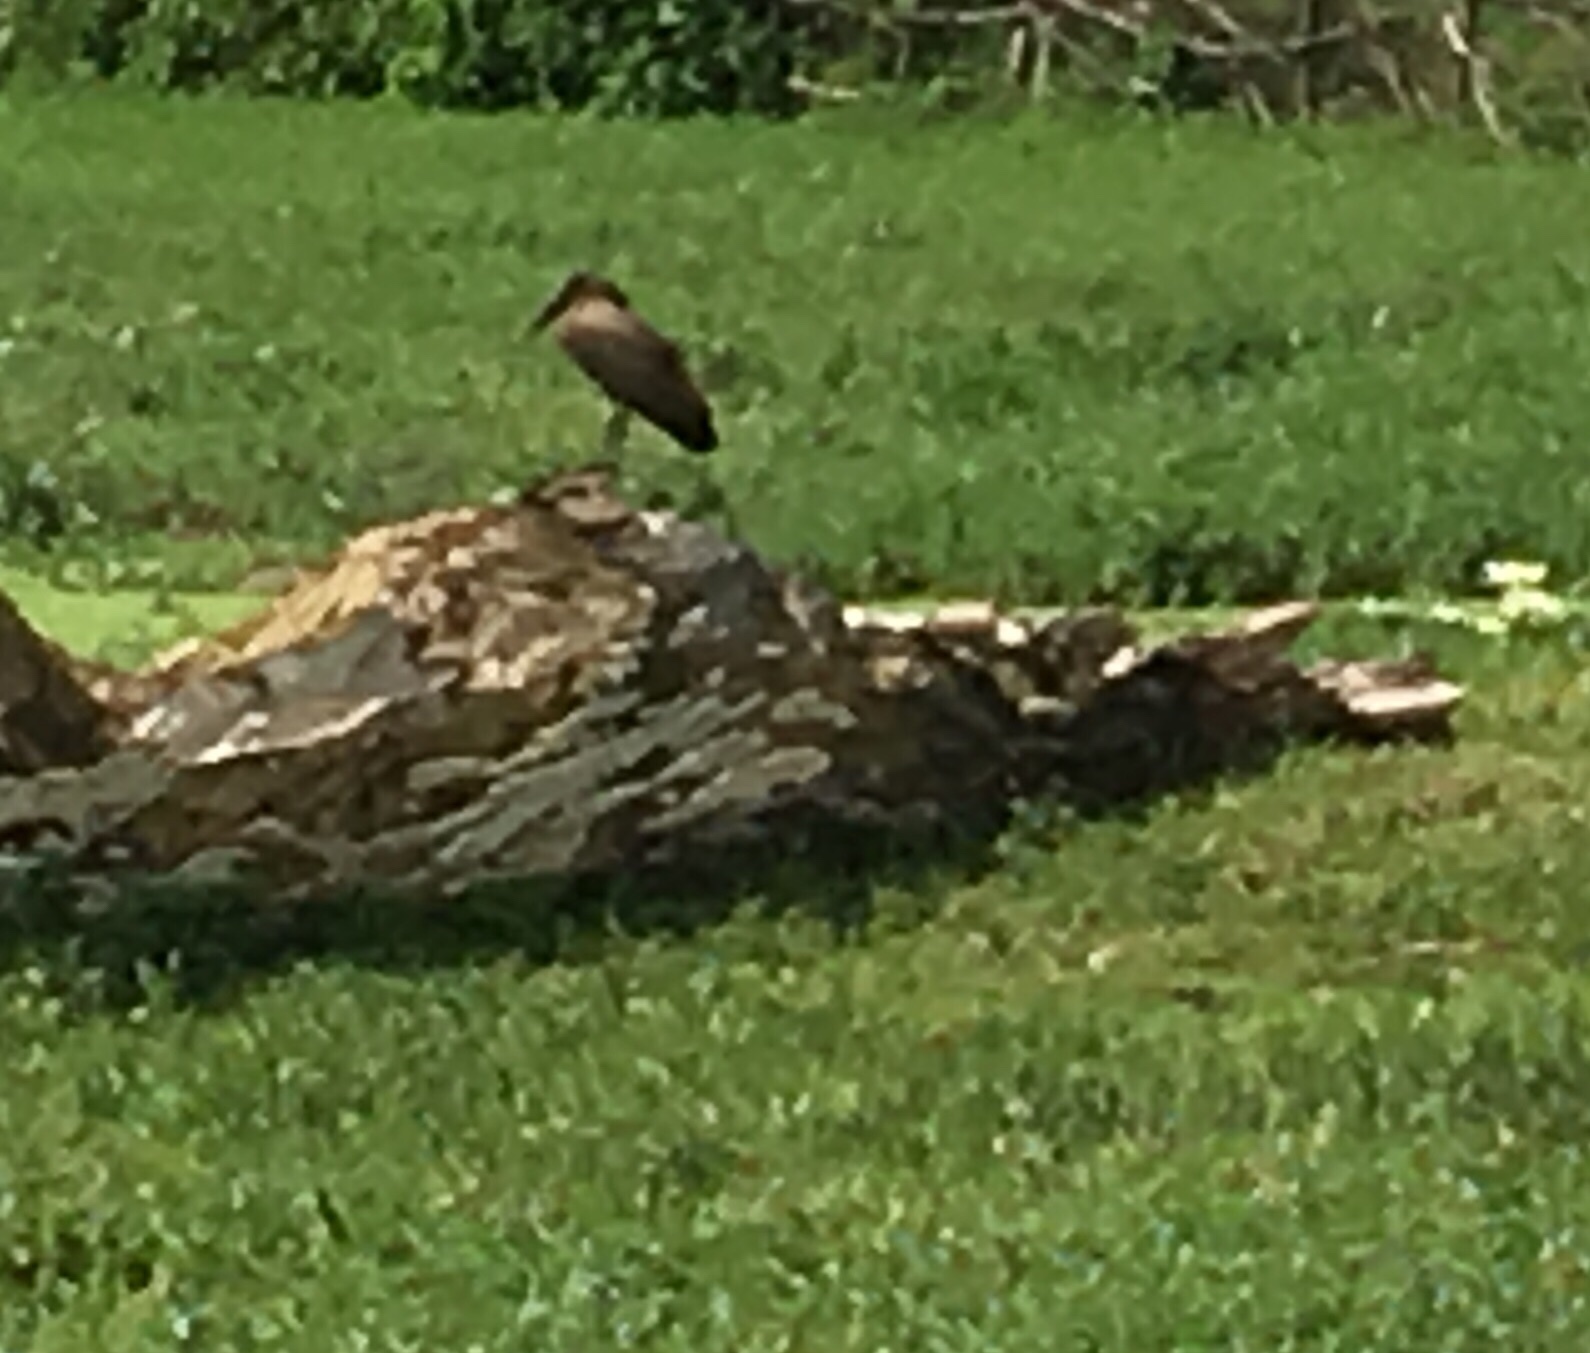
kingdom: Animalia
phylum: Chordata
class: Aves
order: Pelecaniformes
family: Scopidae
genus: Scopus
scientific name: Scopus umbretta
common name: Hamerkop
